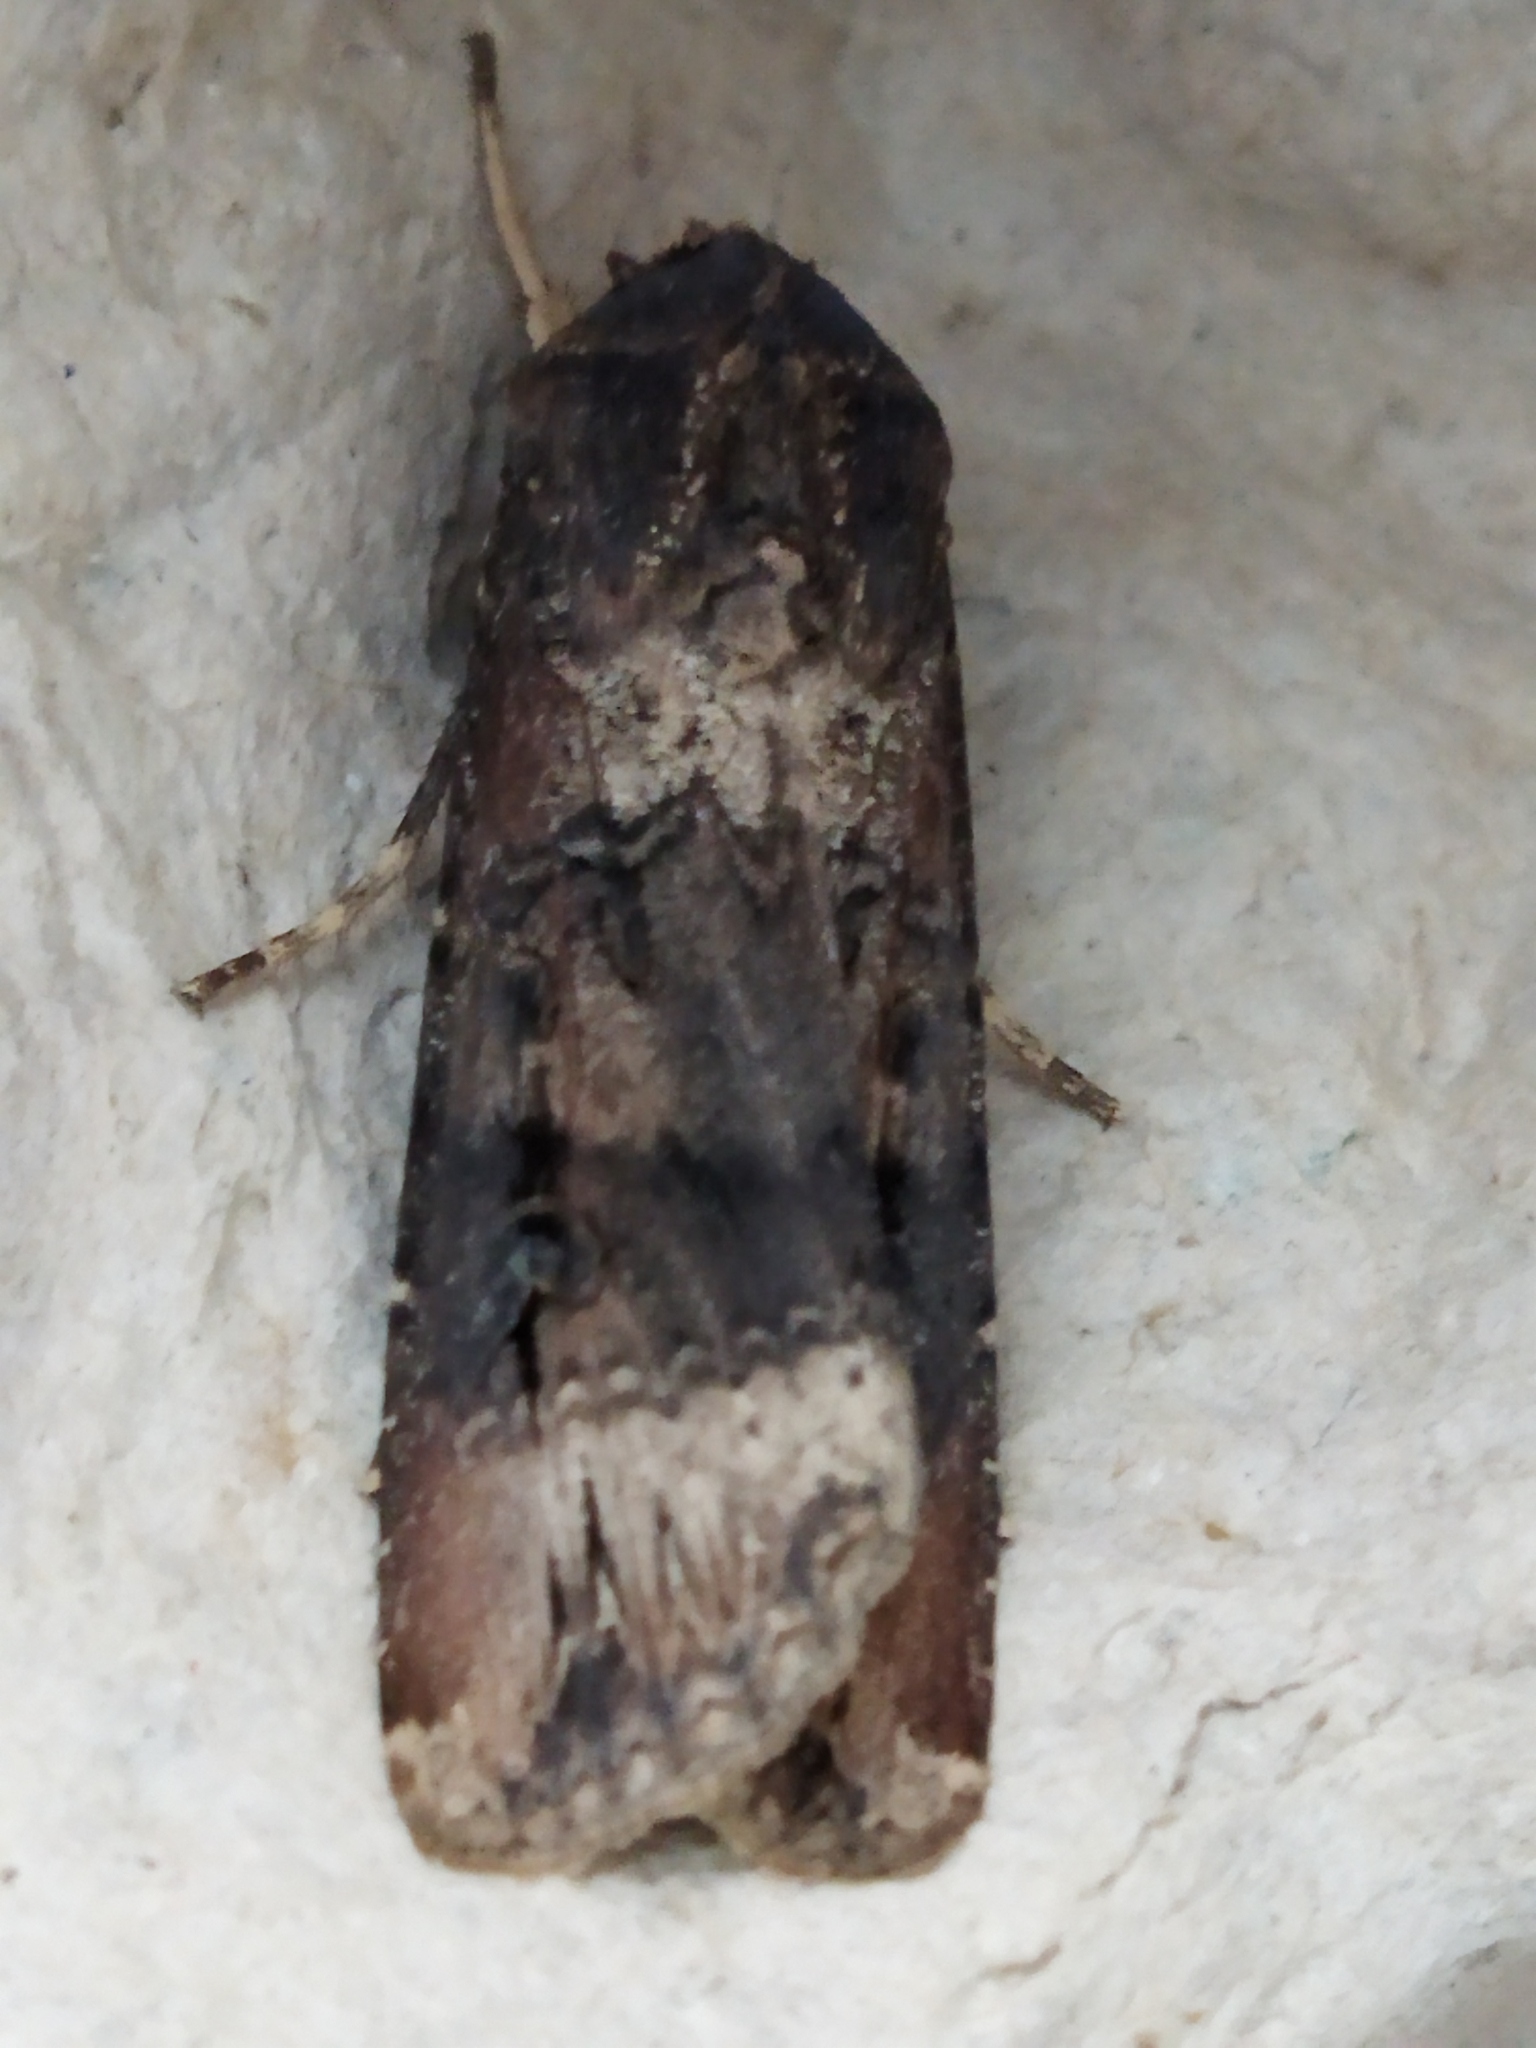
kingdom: Animalia
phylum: Arthropoda
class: Insecta
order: Lepidoptera
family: Noctuidae
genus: Agrotis
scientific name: Agrotis ipsilon
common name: Dark sword-grass
